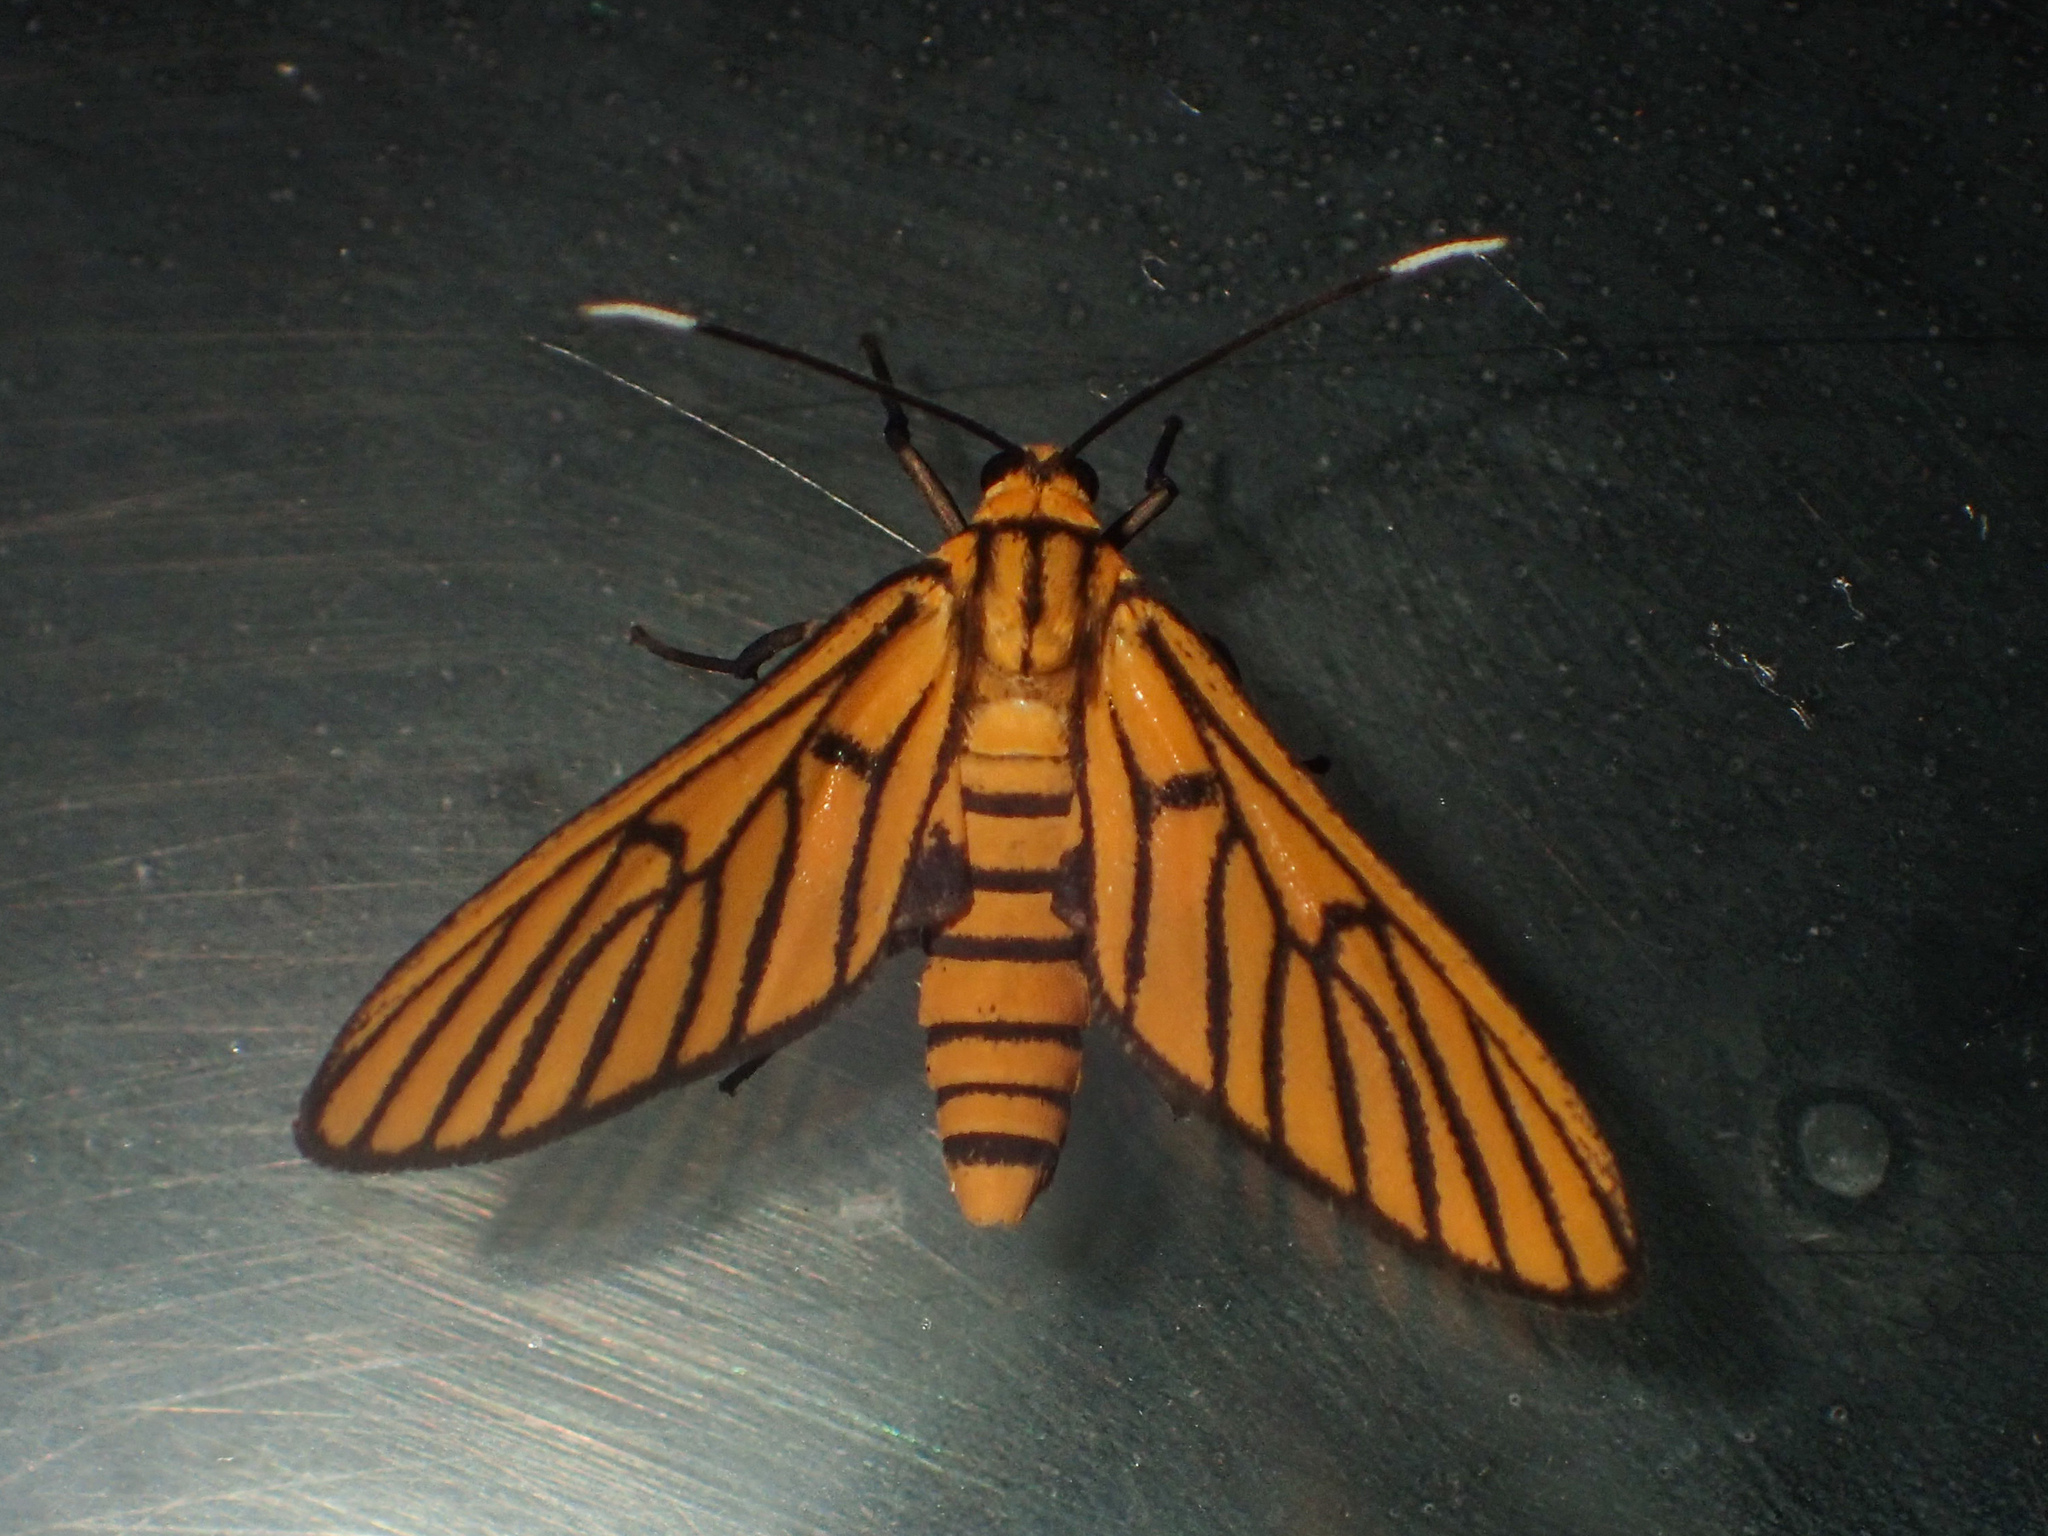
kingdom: Animalia
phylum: Arthropoda
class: Insecta
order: Lepidoptera
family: Erebidae
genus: Amata
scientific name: Amata tigrina
